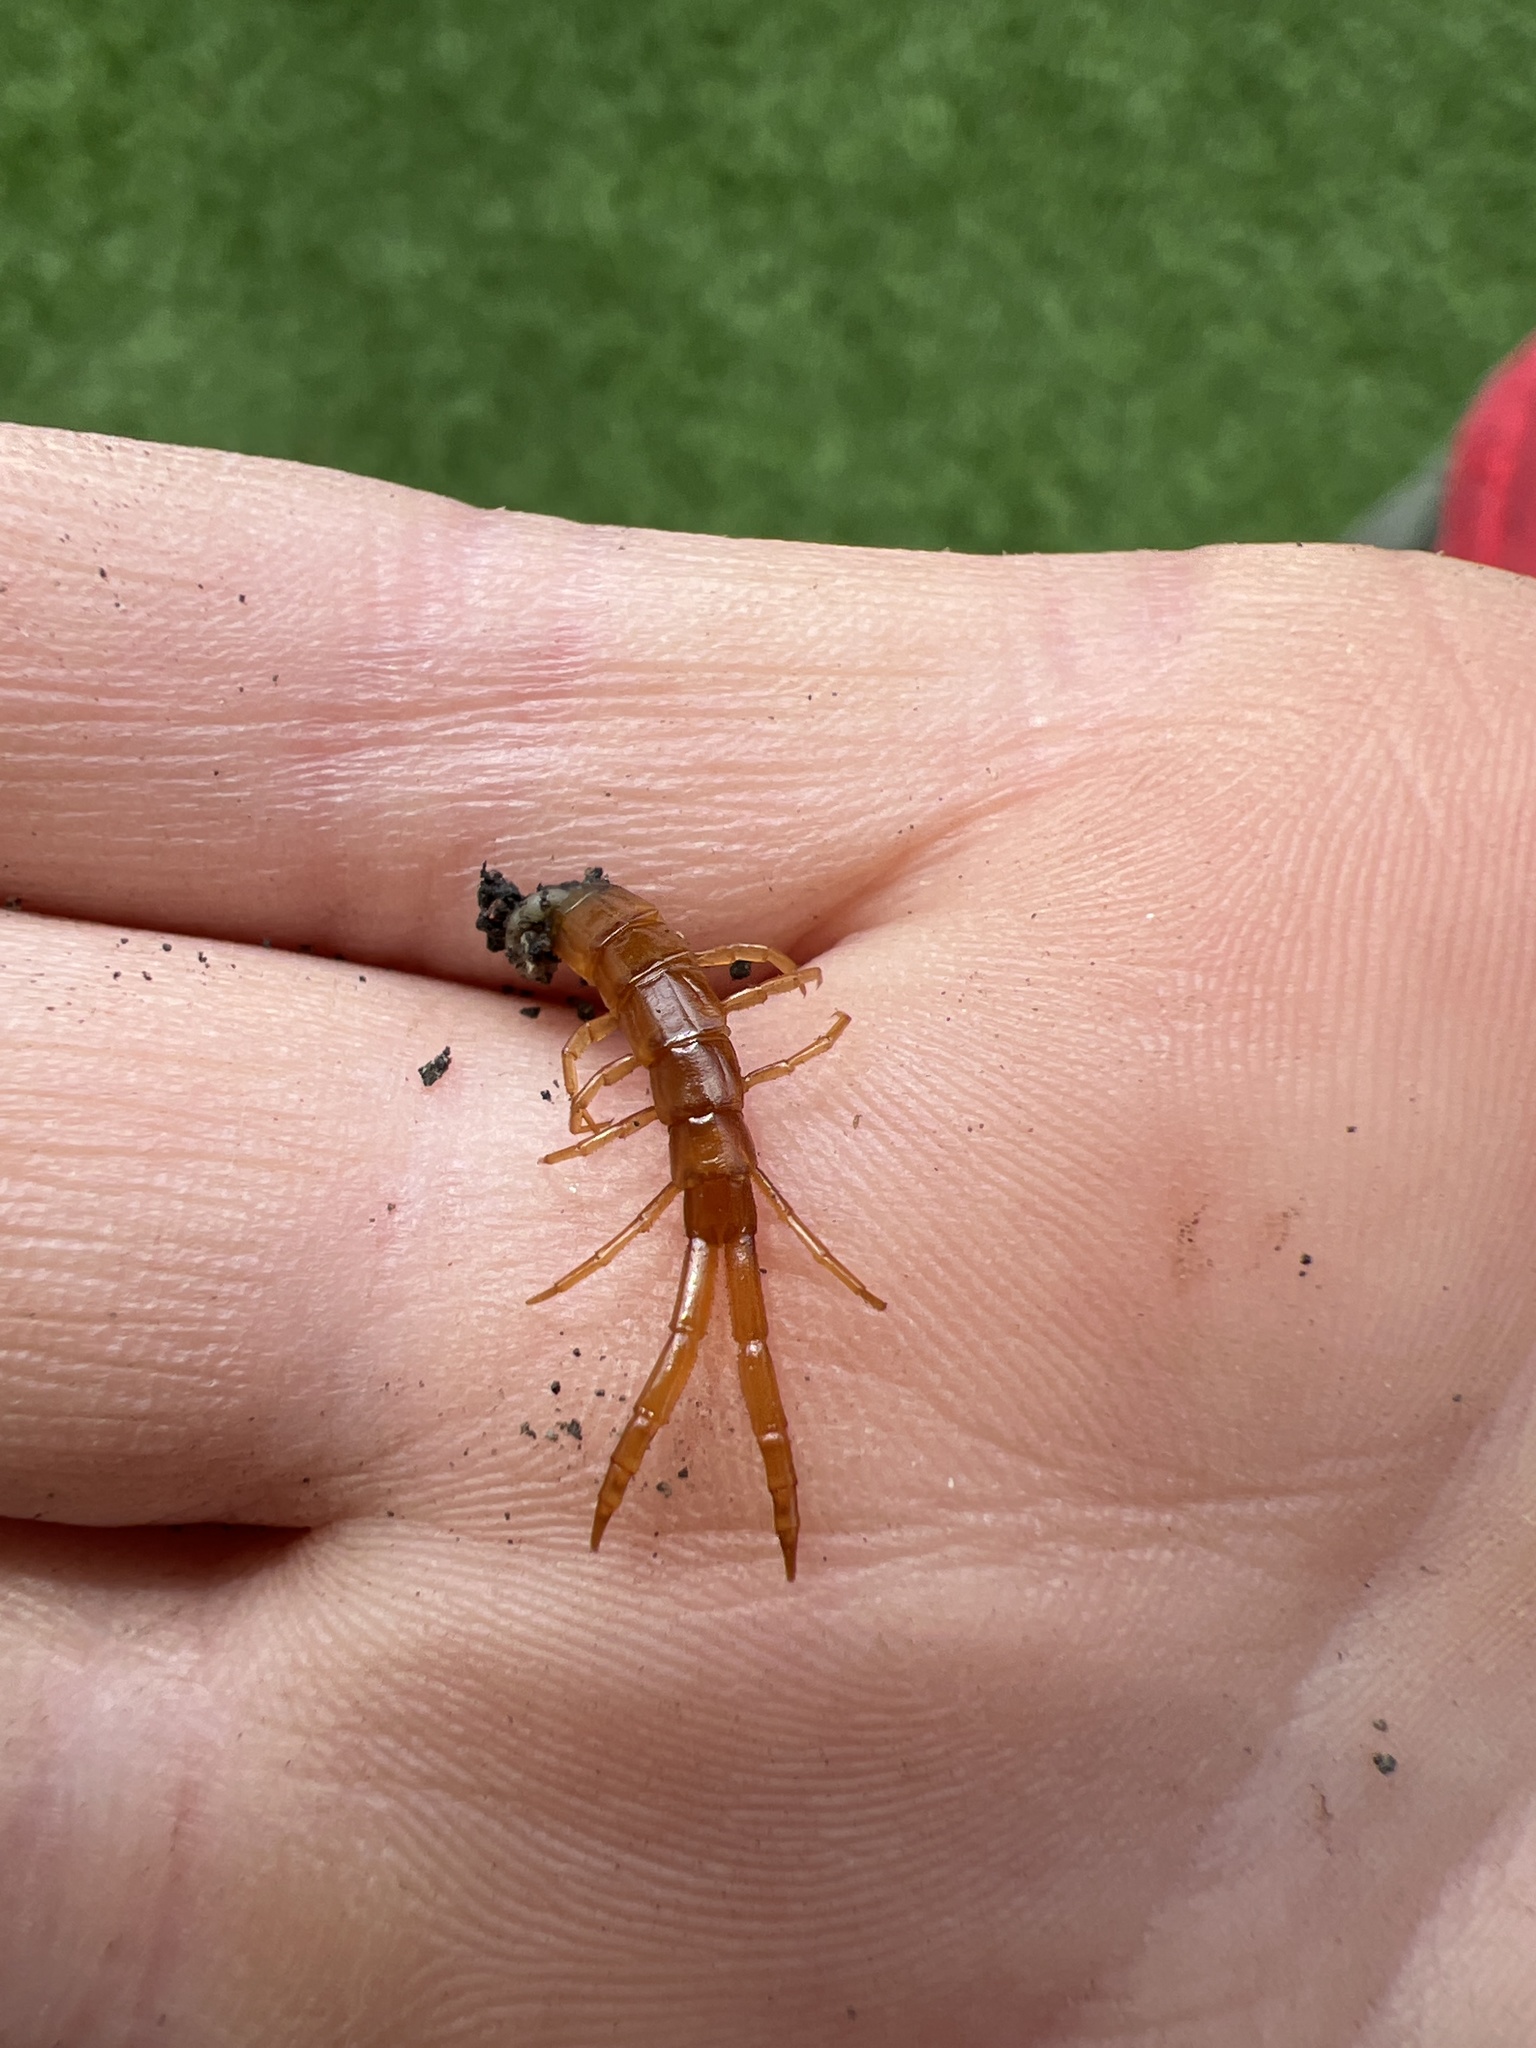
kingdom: Animalia
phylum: Arthropoda
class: Chilopoda
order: Scolopendromorpha
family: Cryptopidae
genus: Cryptops
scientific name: Cryptops
